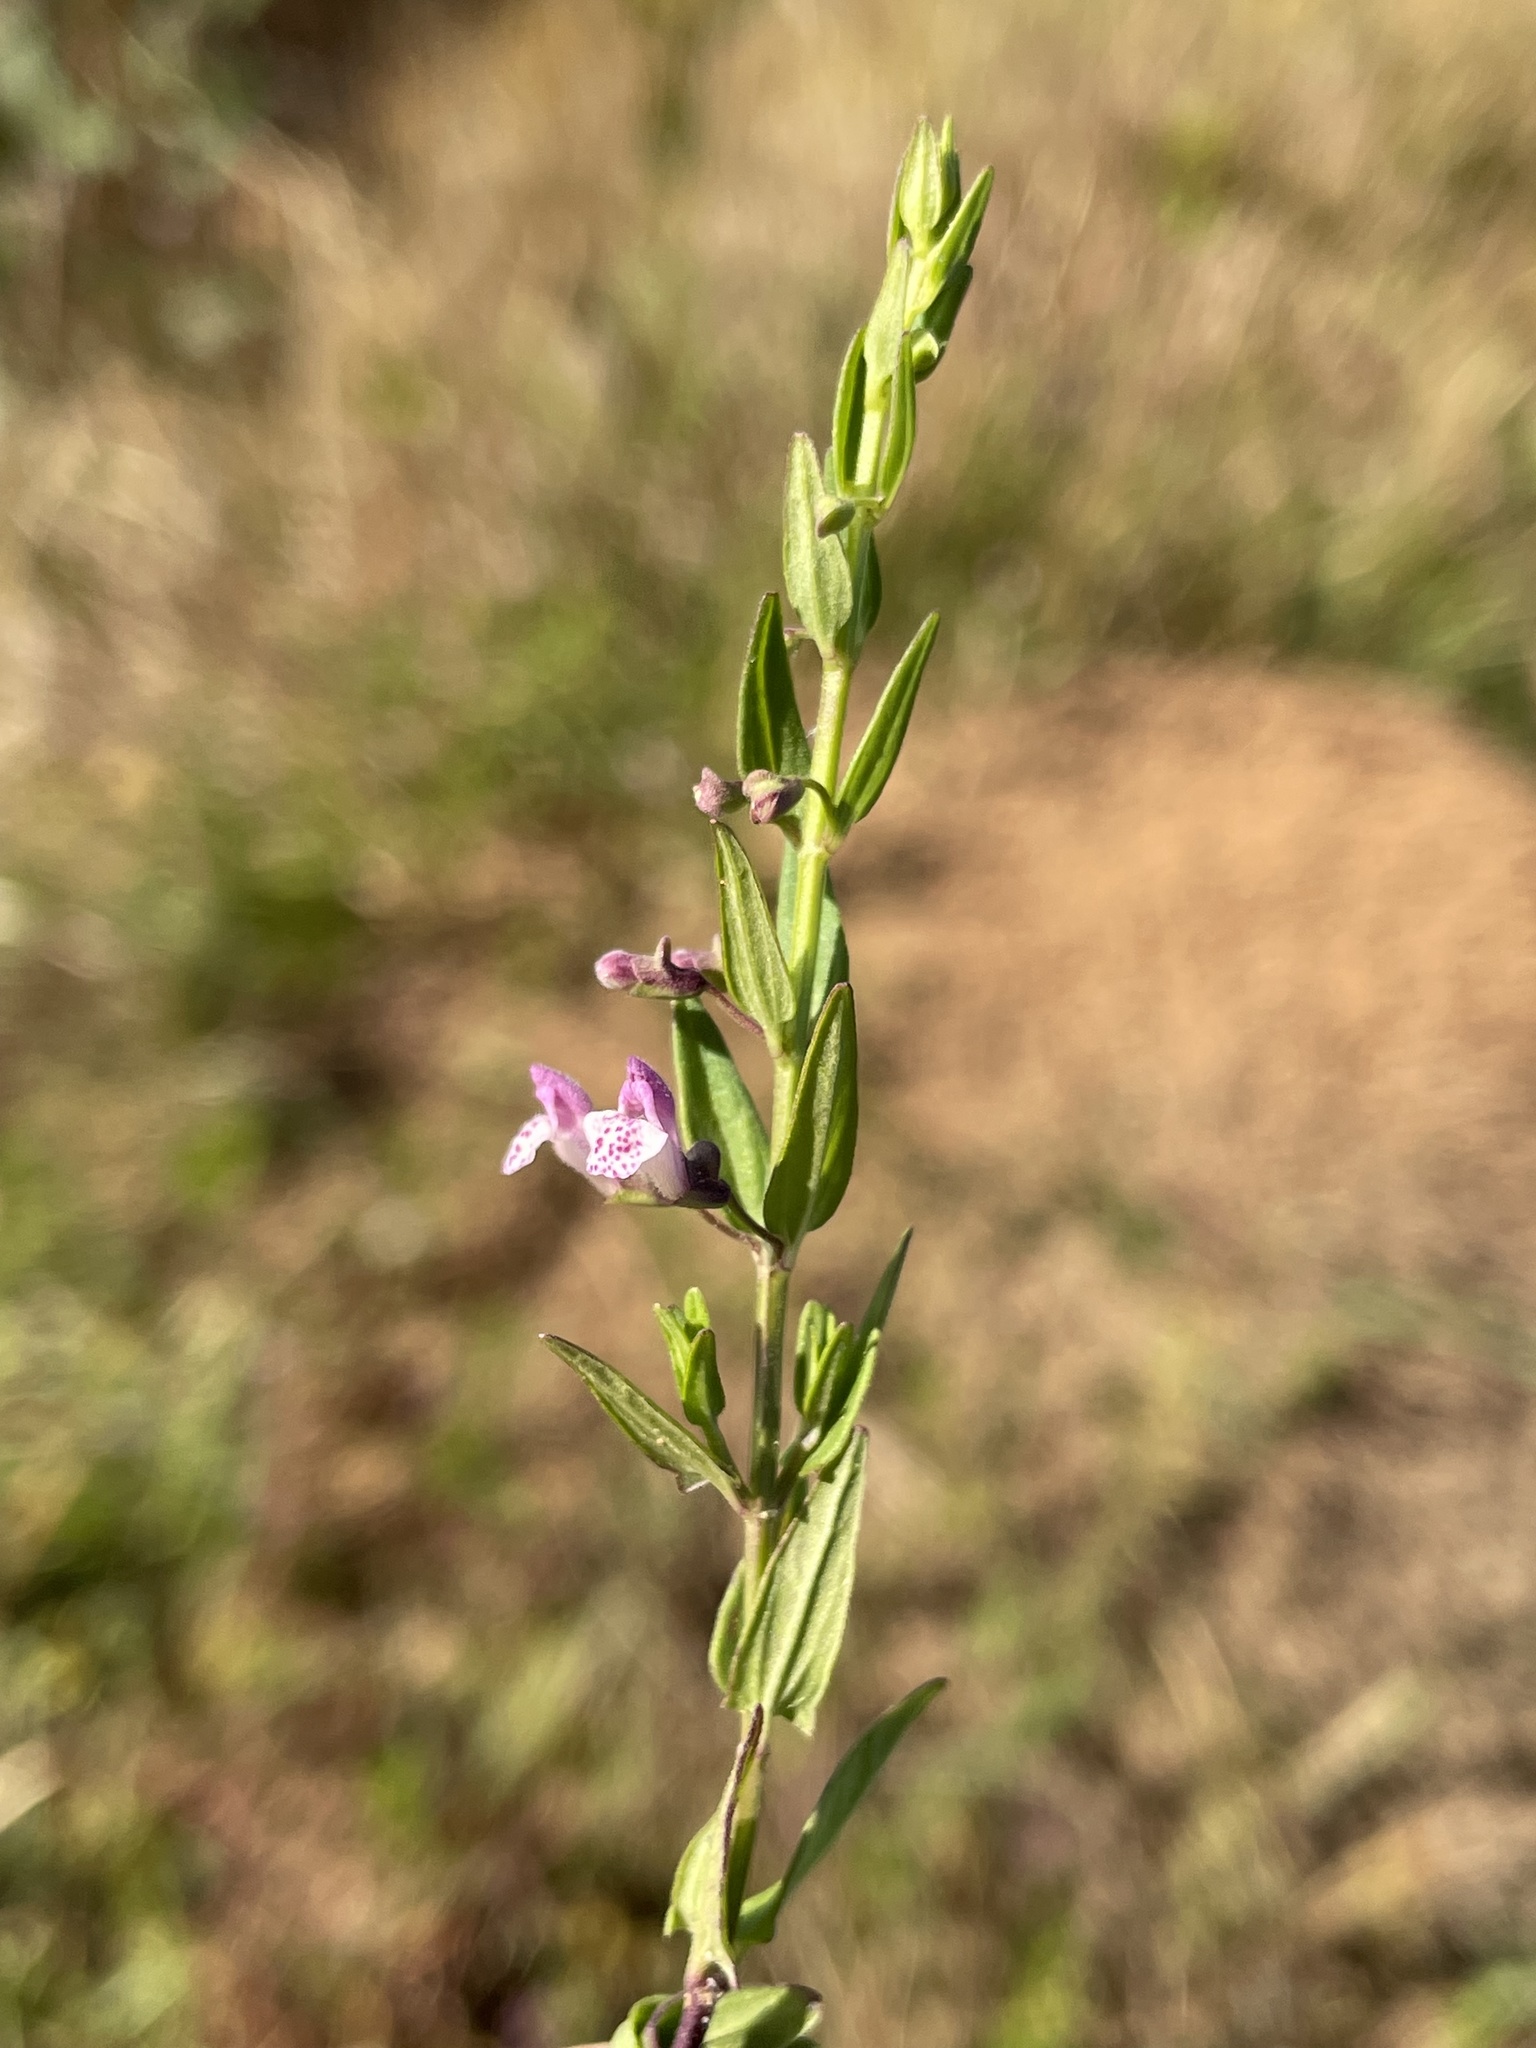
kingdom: Plantae
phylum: Tracheophyta
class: Magnoliopsida
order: Lamiales
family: Lamiaceae
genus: Scutellaria
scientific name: Scutellaria racemosa
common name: South american skullcap
